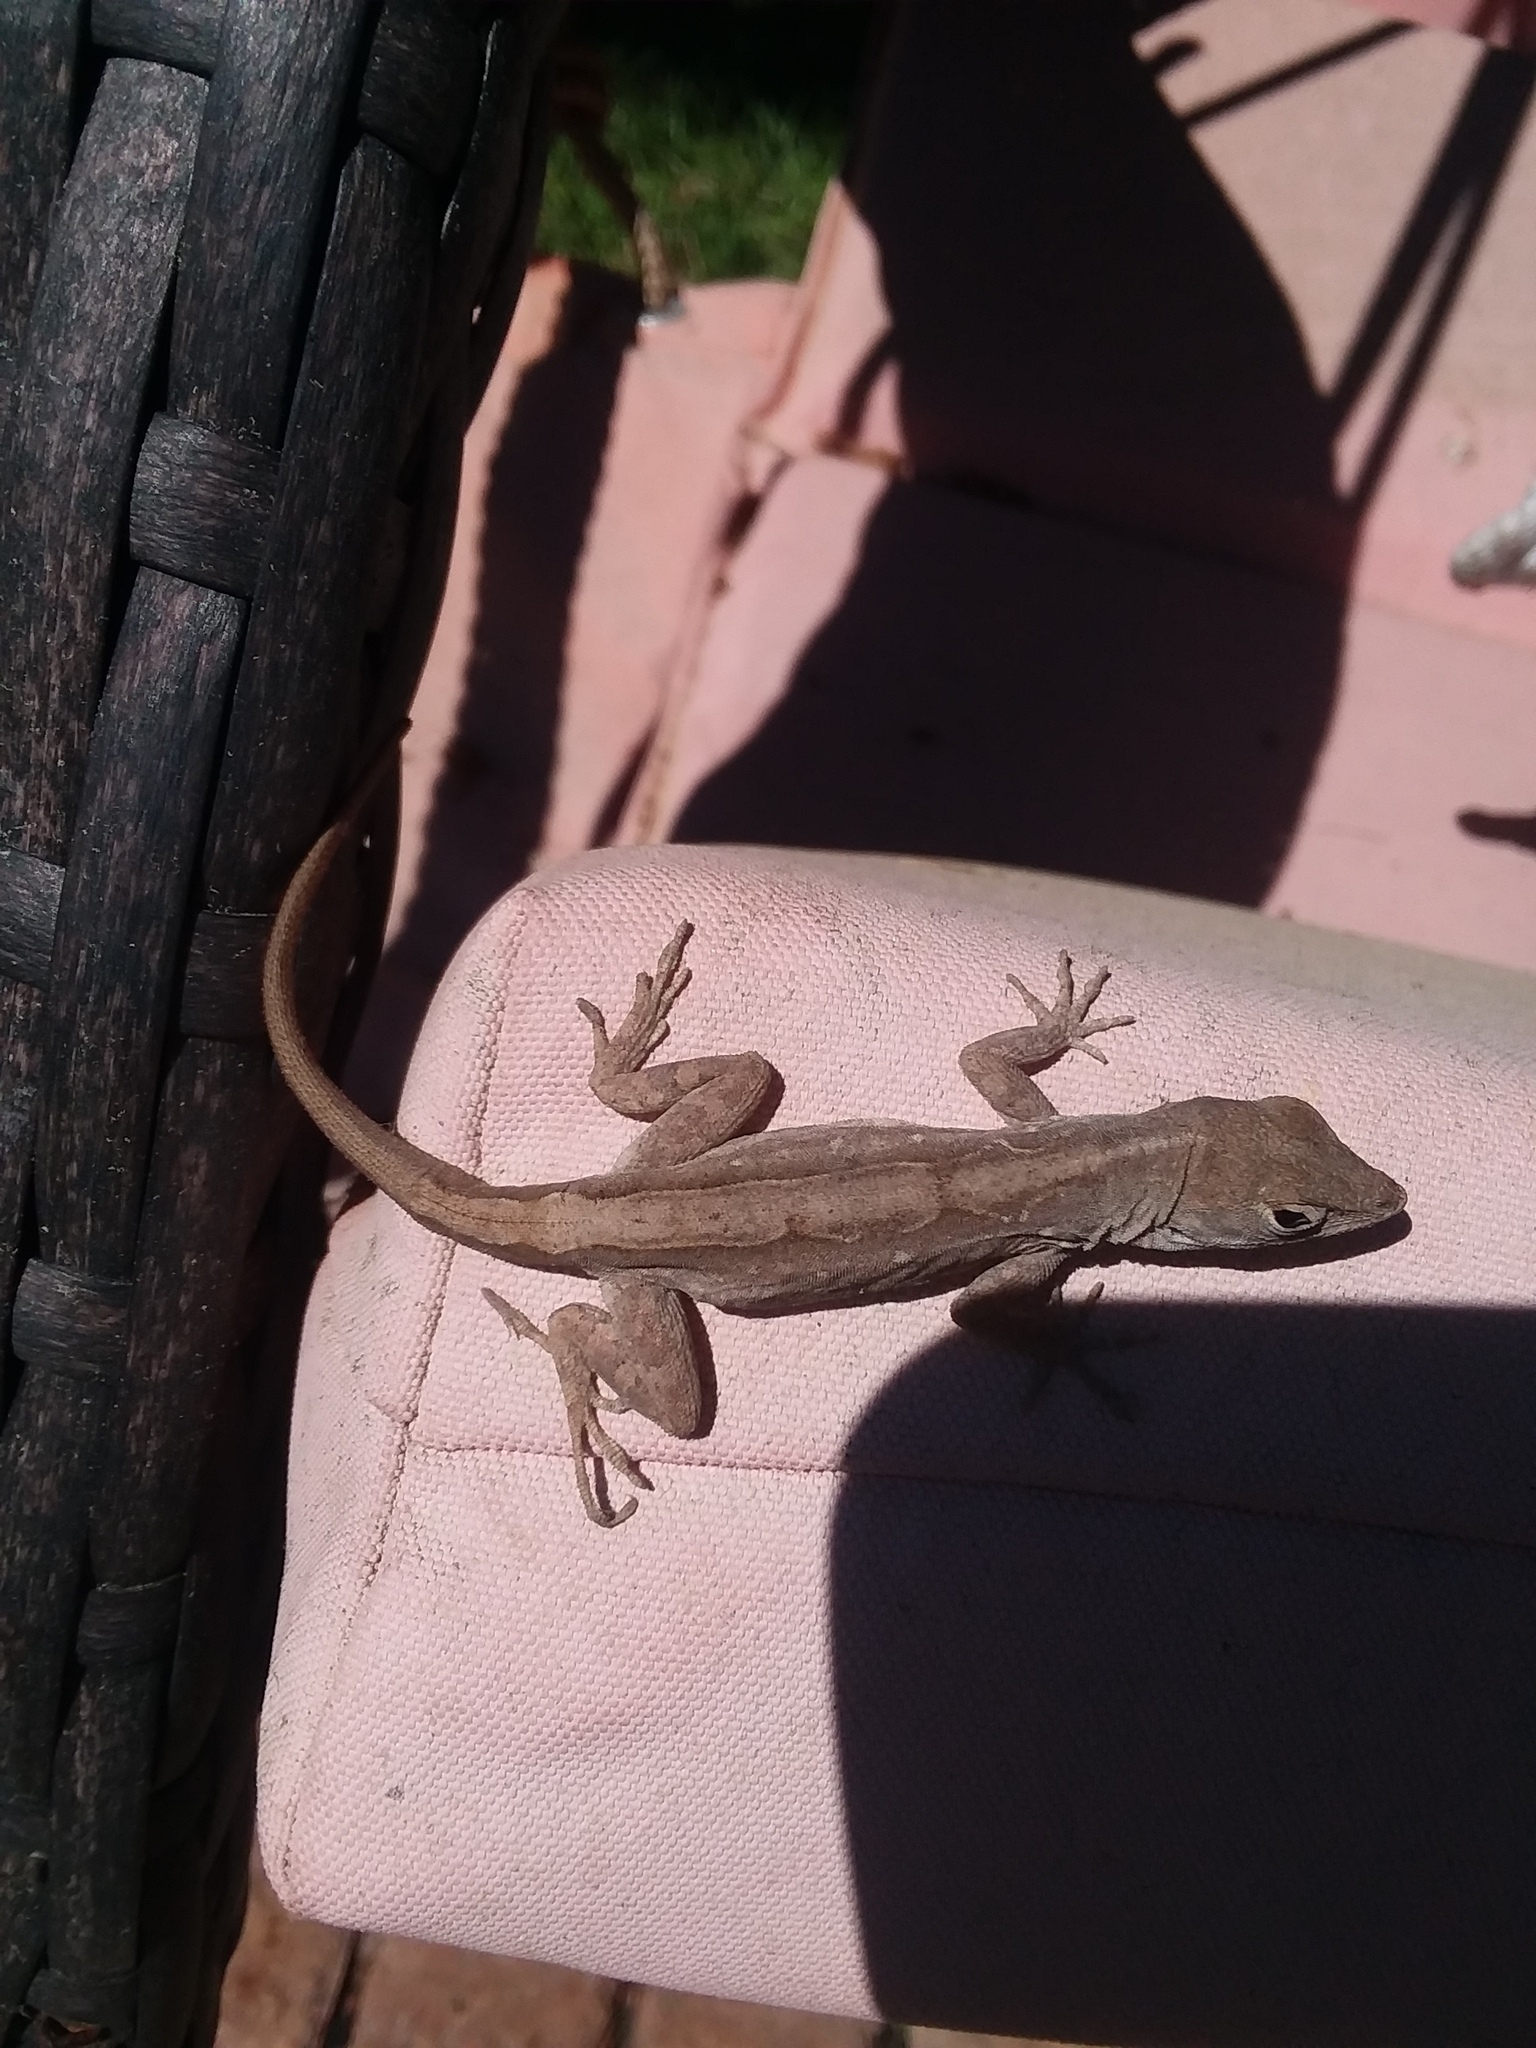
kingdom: Animalia
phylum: Chordata
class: Squamata
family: Dactyloidae
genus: Anolis
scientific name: Anolis sagrei
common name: Brown anole
